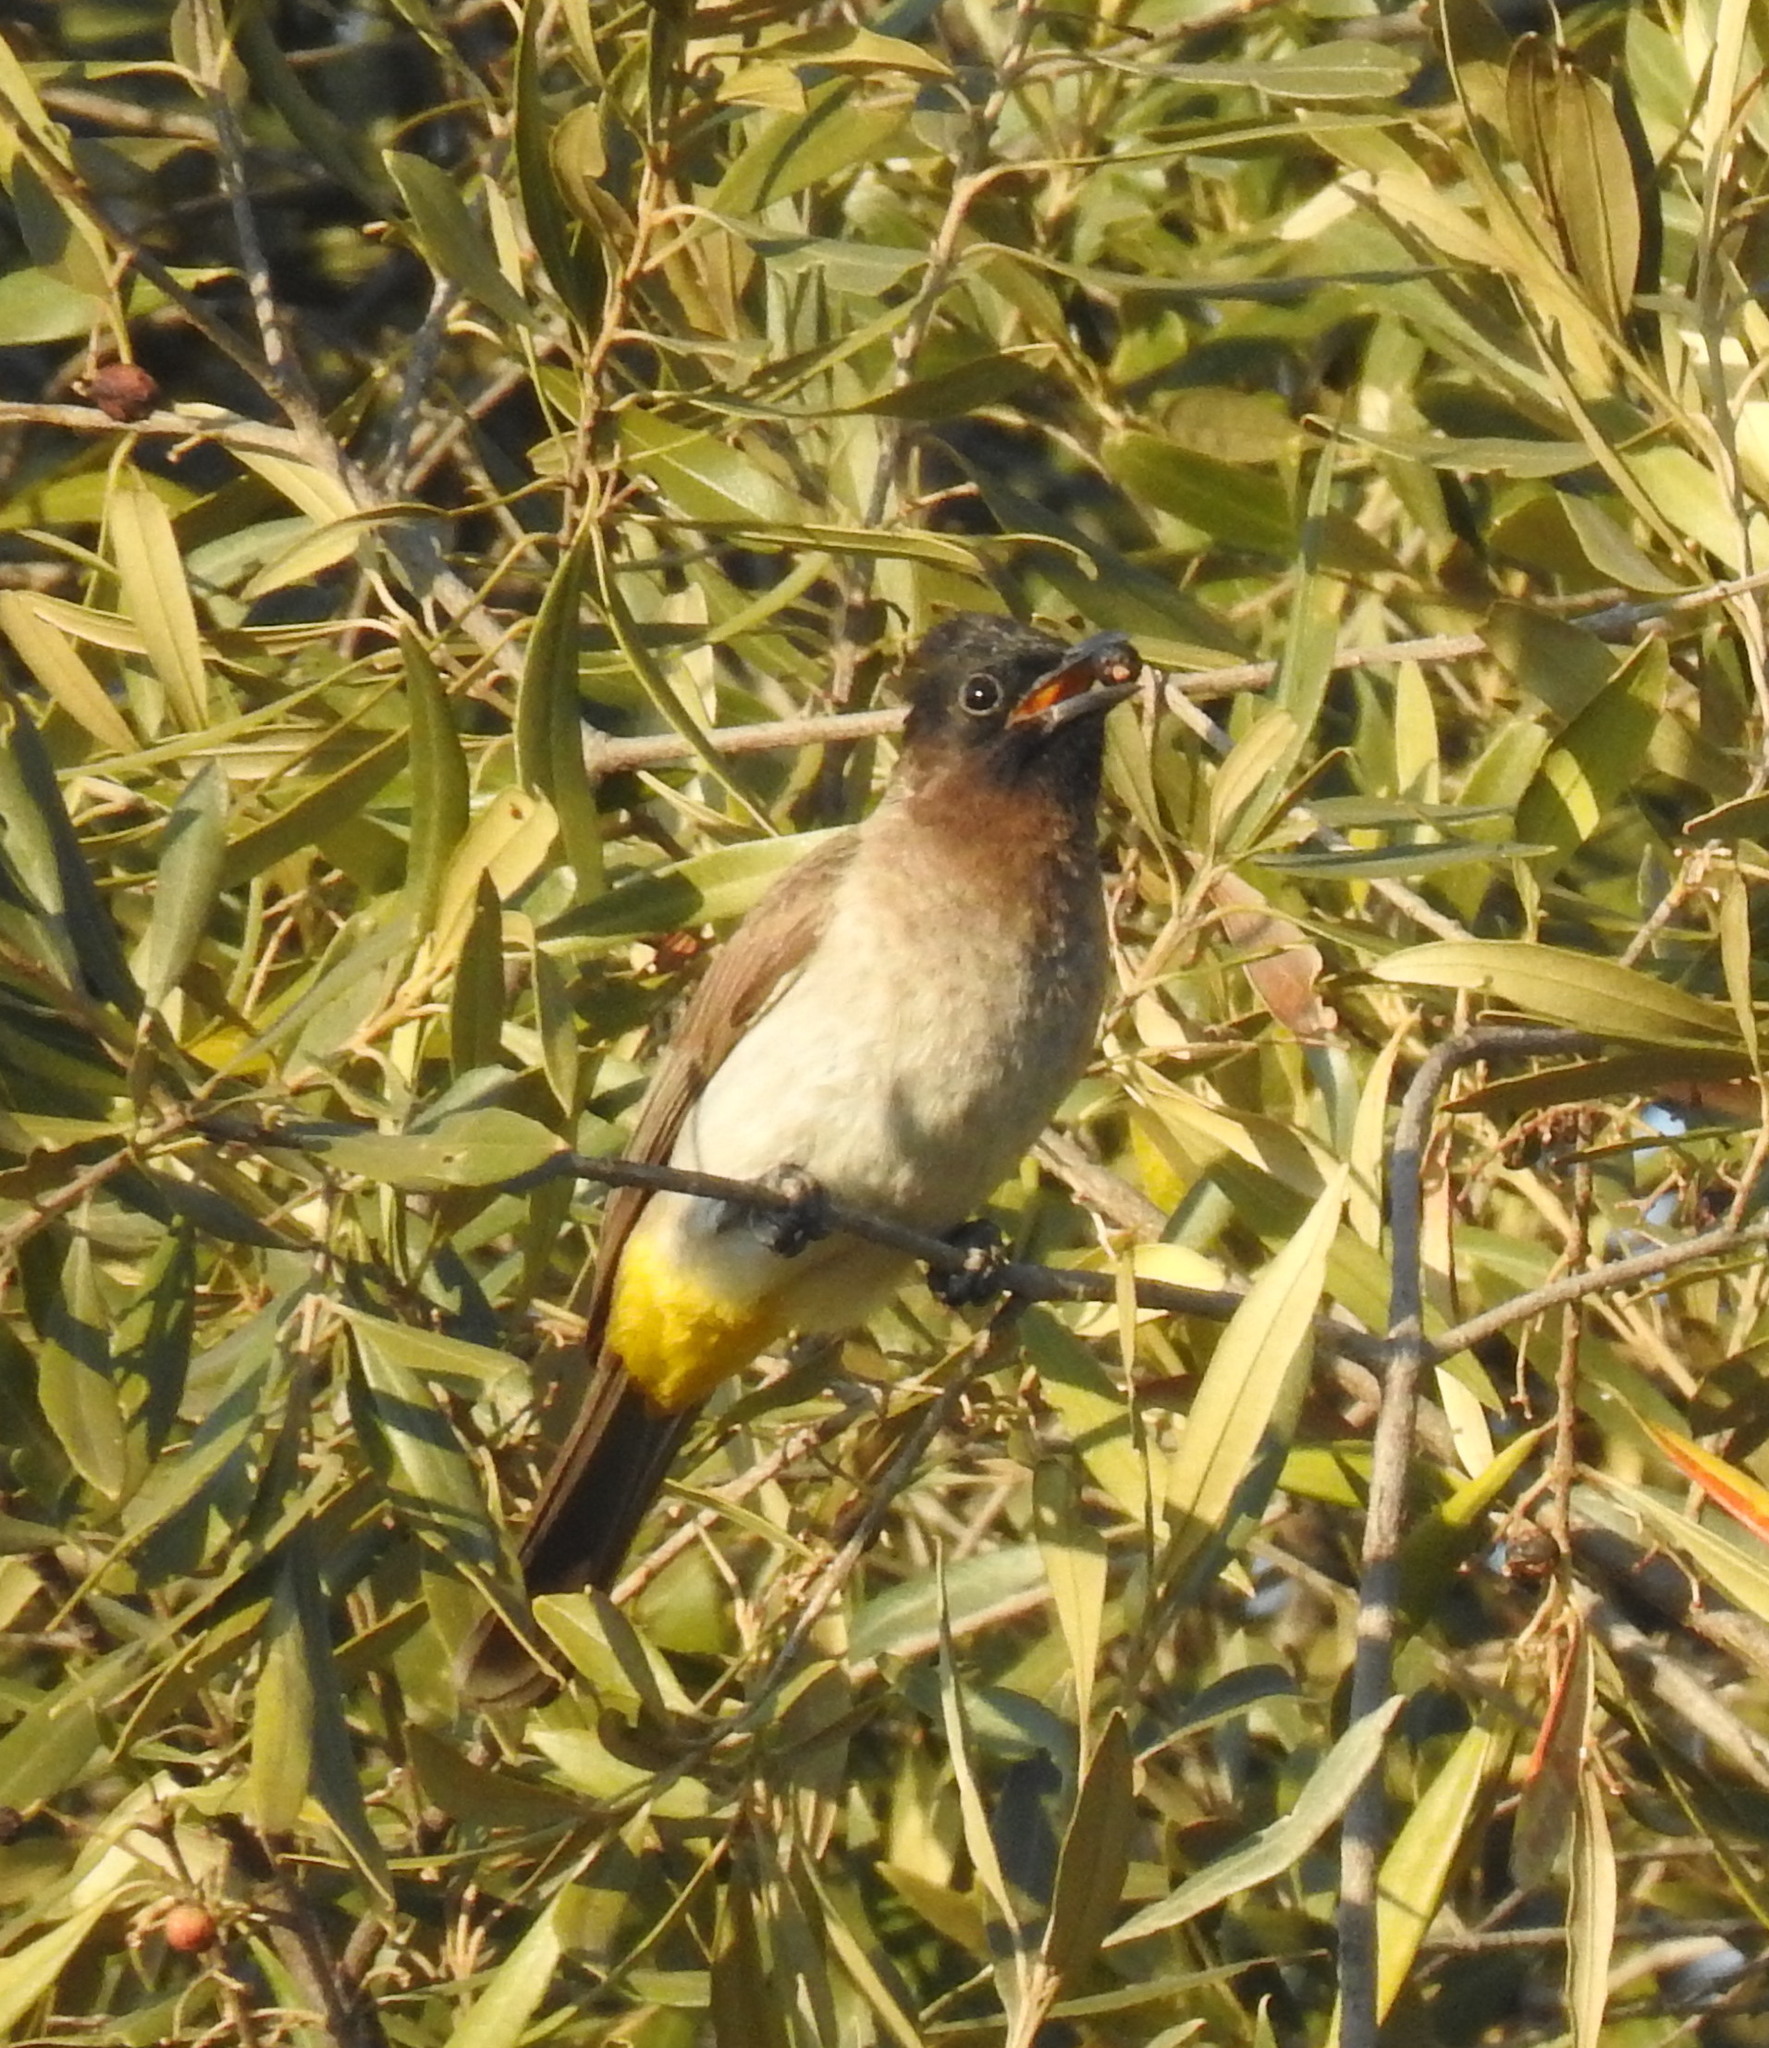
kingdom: Animalia
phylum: Chordata
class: Aves
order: Passeriformes
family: Pycnonotidae
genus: Pycnonotus
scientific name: Pycnonotus barbatus
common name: Common bulbul
